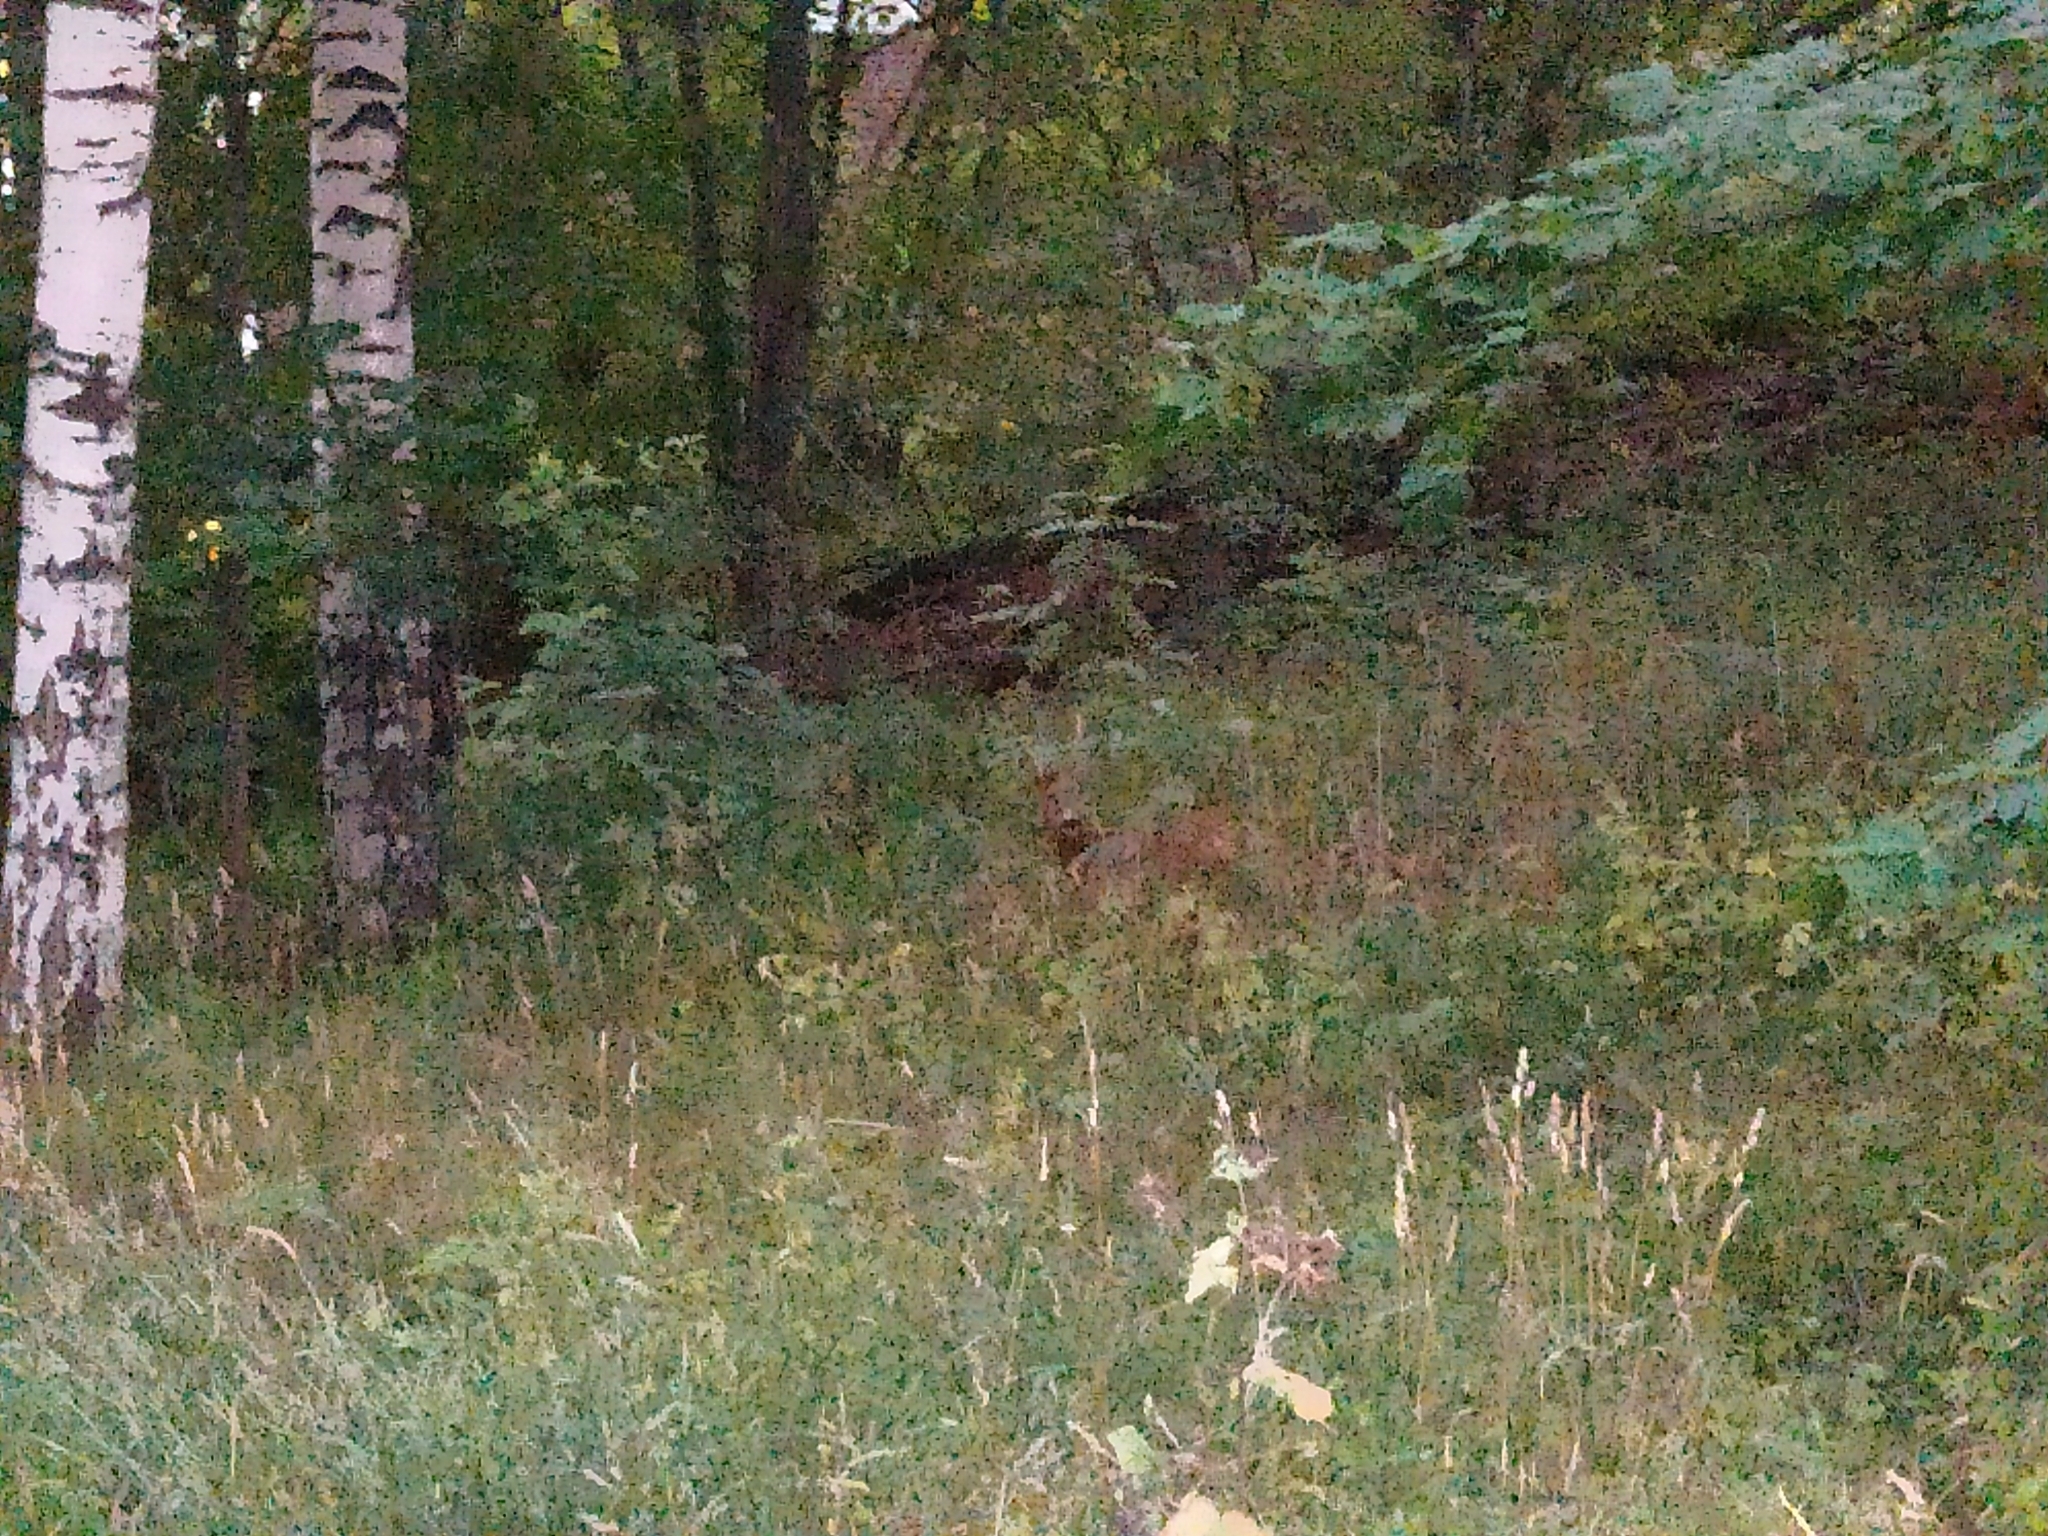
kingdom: Animalia
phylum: Chordata
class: Mammalia
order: Artiodactyla
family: Cervidae
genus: Capreolus
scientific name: Capreolus capreolus
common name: Western roe deer
